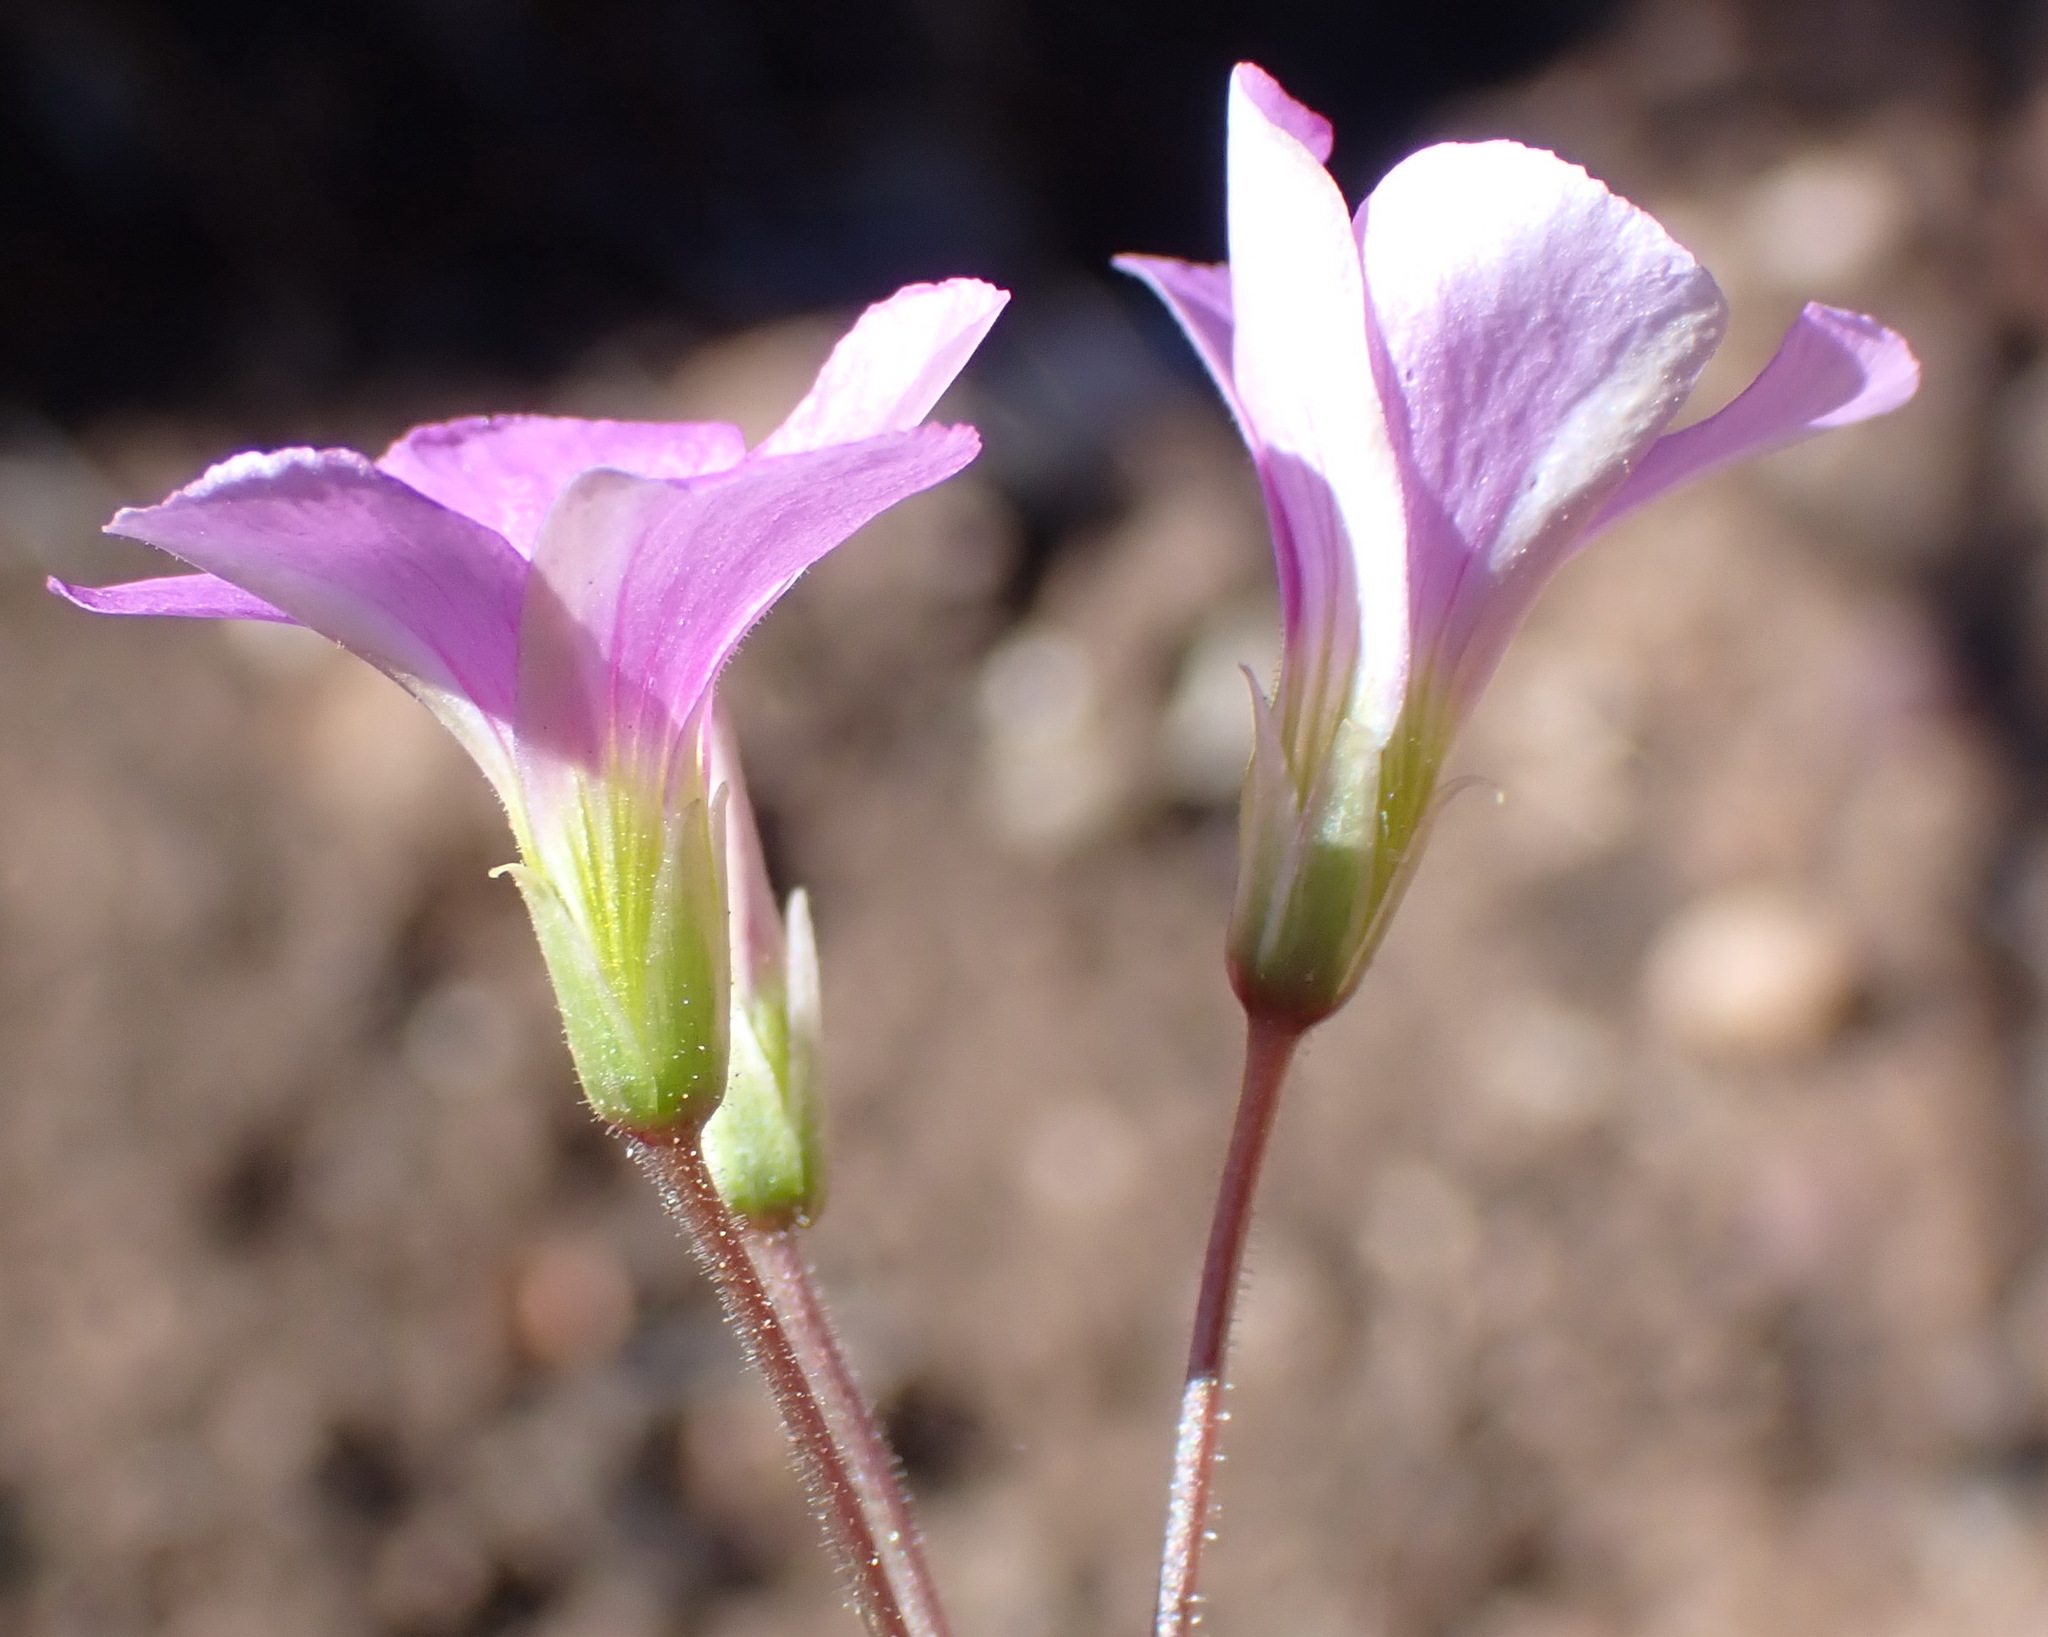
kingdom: Plantae
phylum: Tracheophyta
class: Magnoliopsida
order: Oxalidales
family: Oxalidaceae
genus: Oxalis
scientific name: Oxalis stellata
